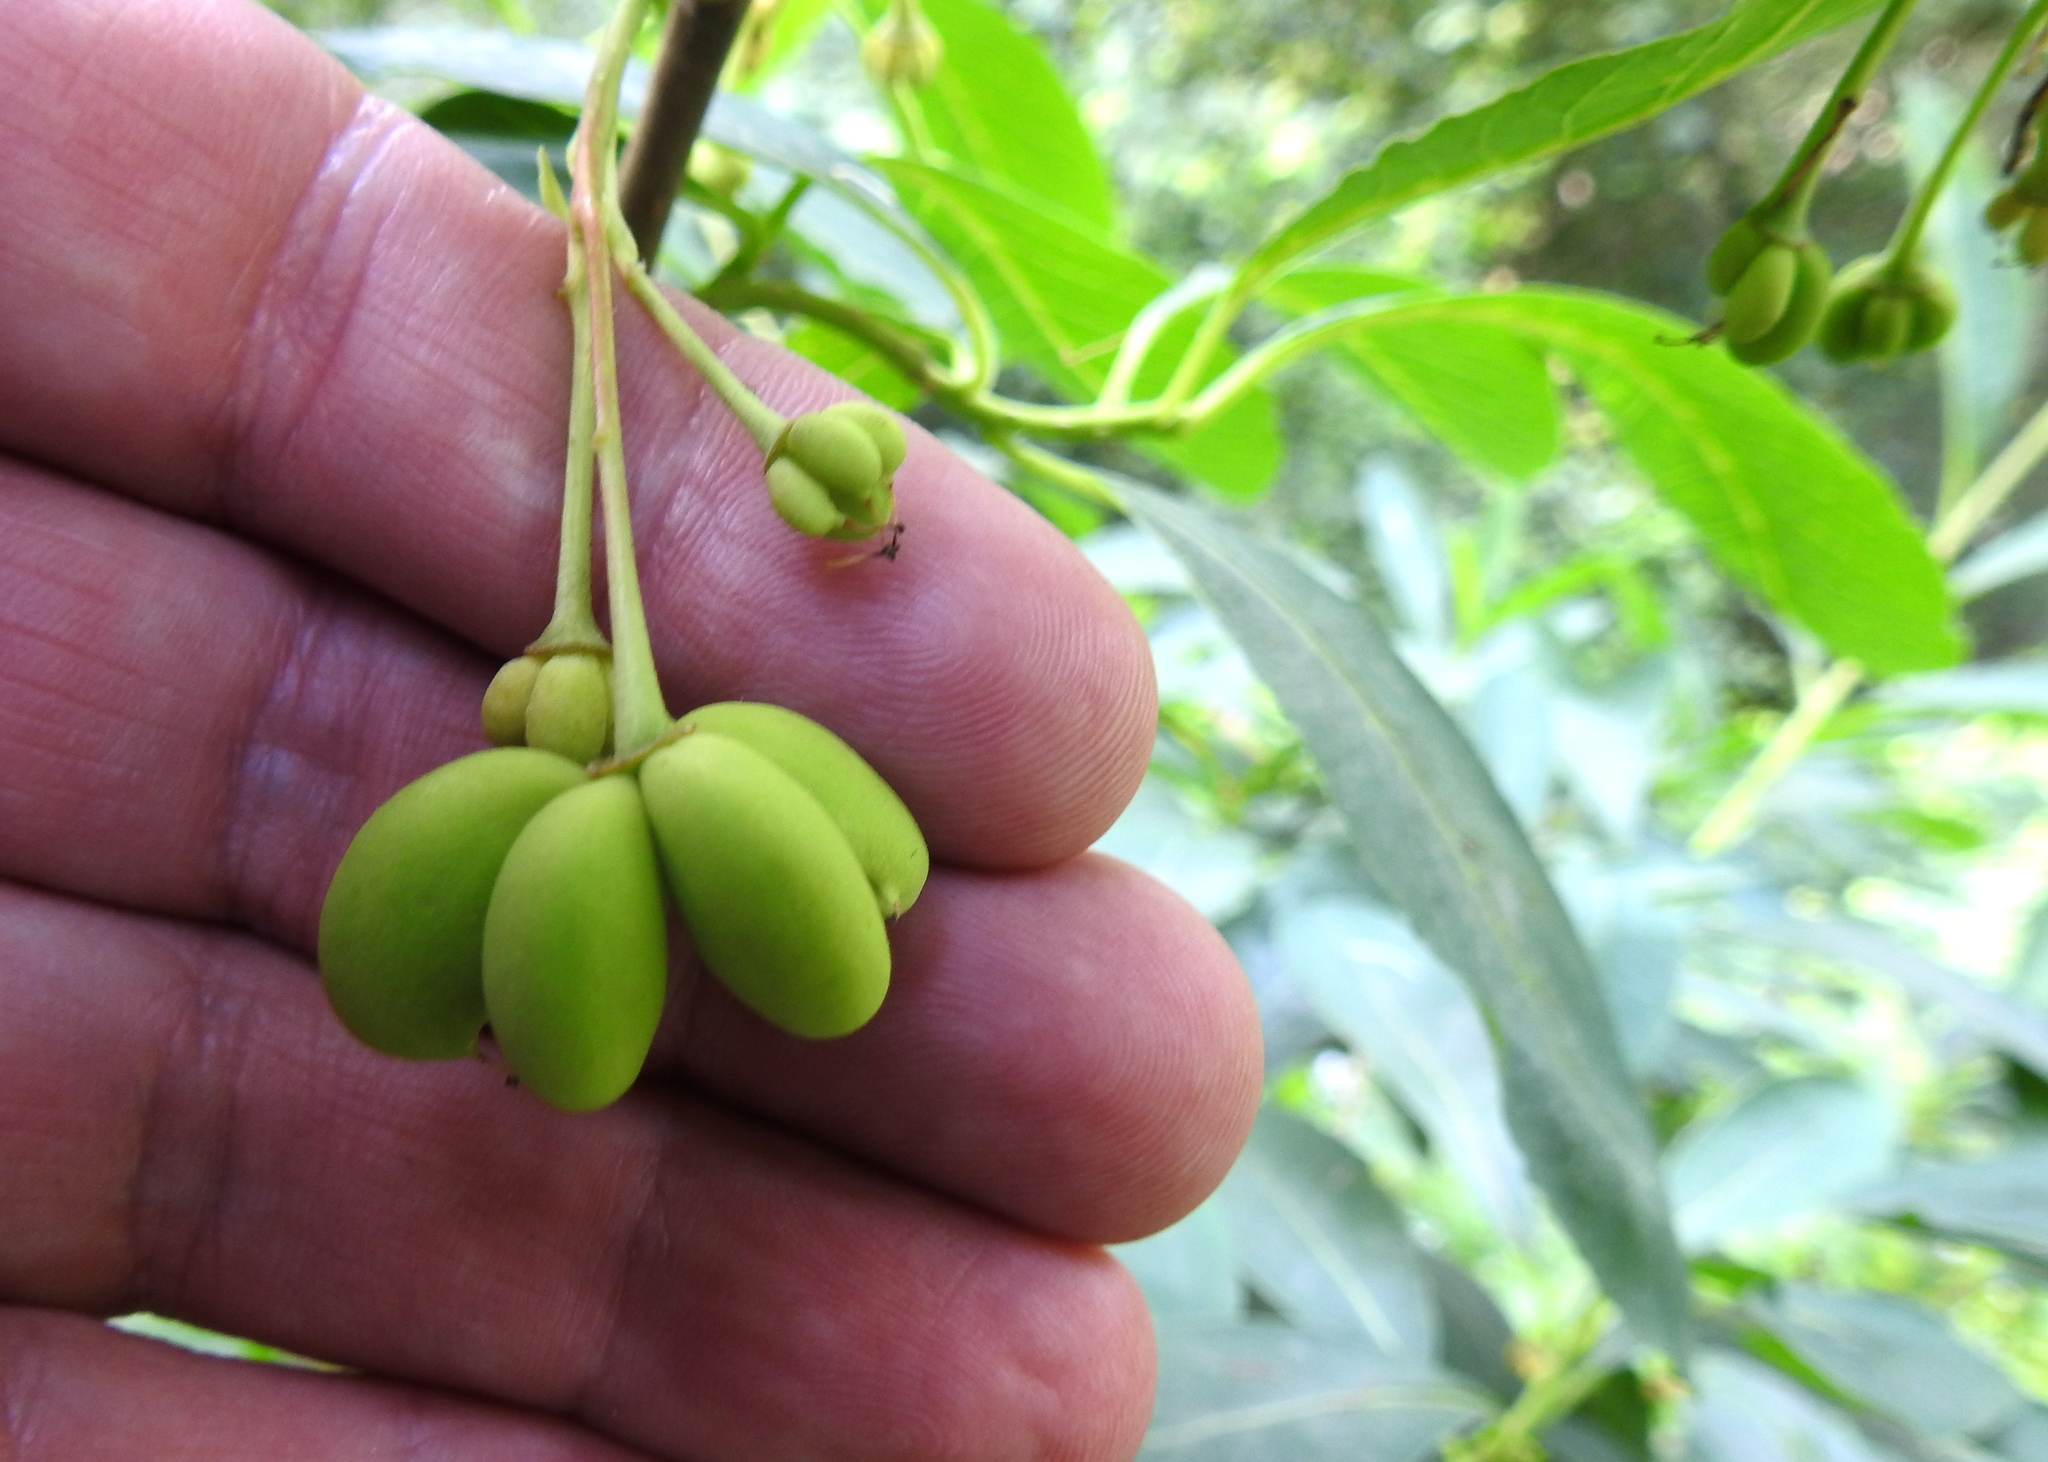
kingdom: Plantae
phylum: Tracheophyta
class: Magnoliopsida
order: Rosales
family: Rosaceae
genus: Oemleria
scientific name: Oemleria cerasiformis
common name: Osoberry
